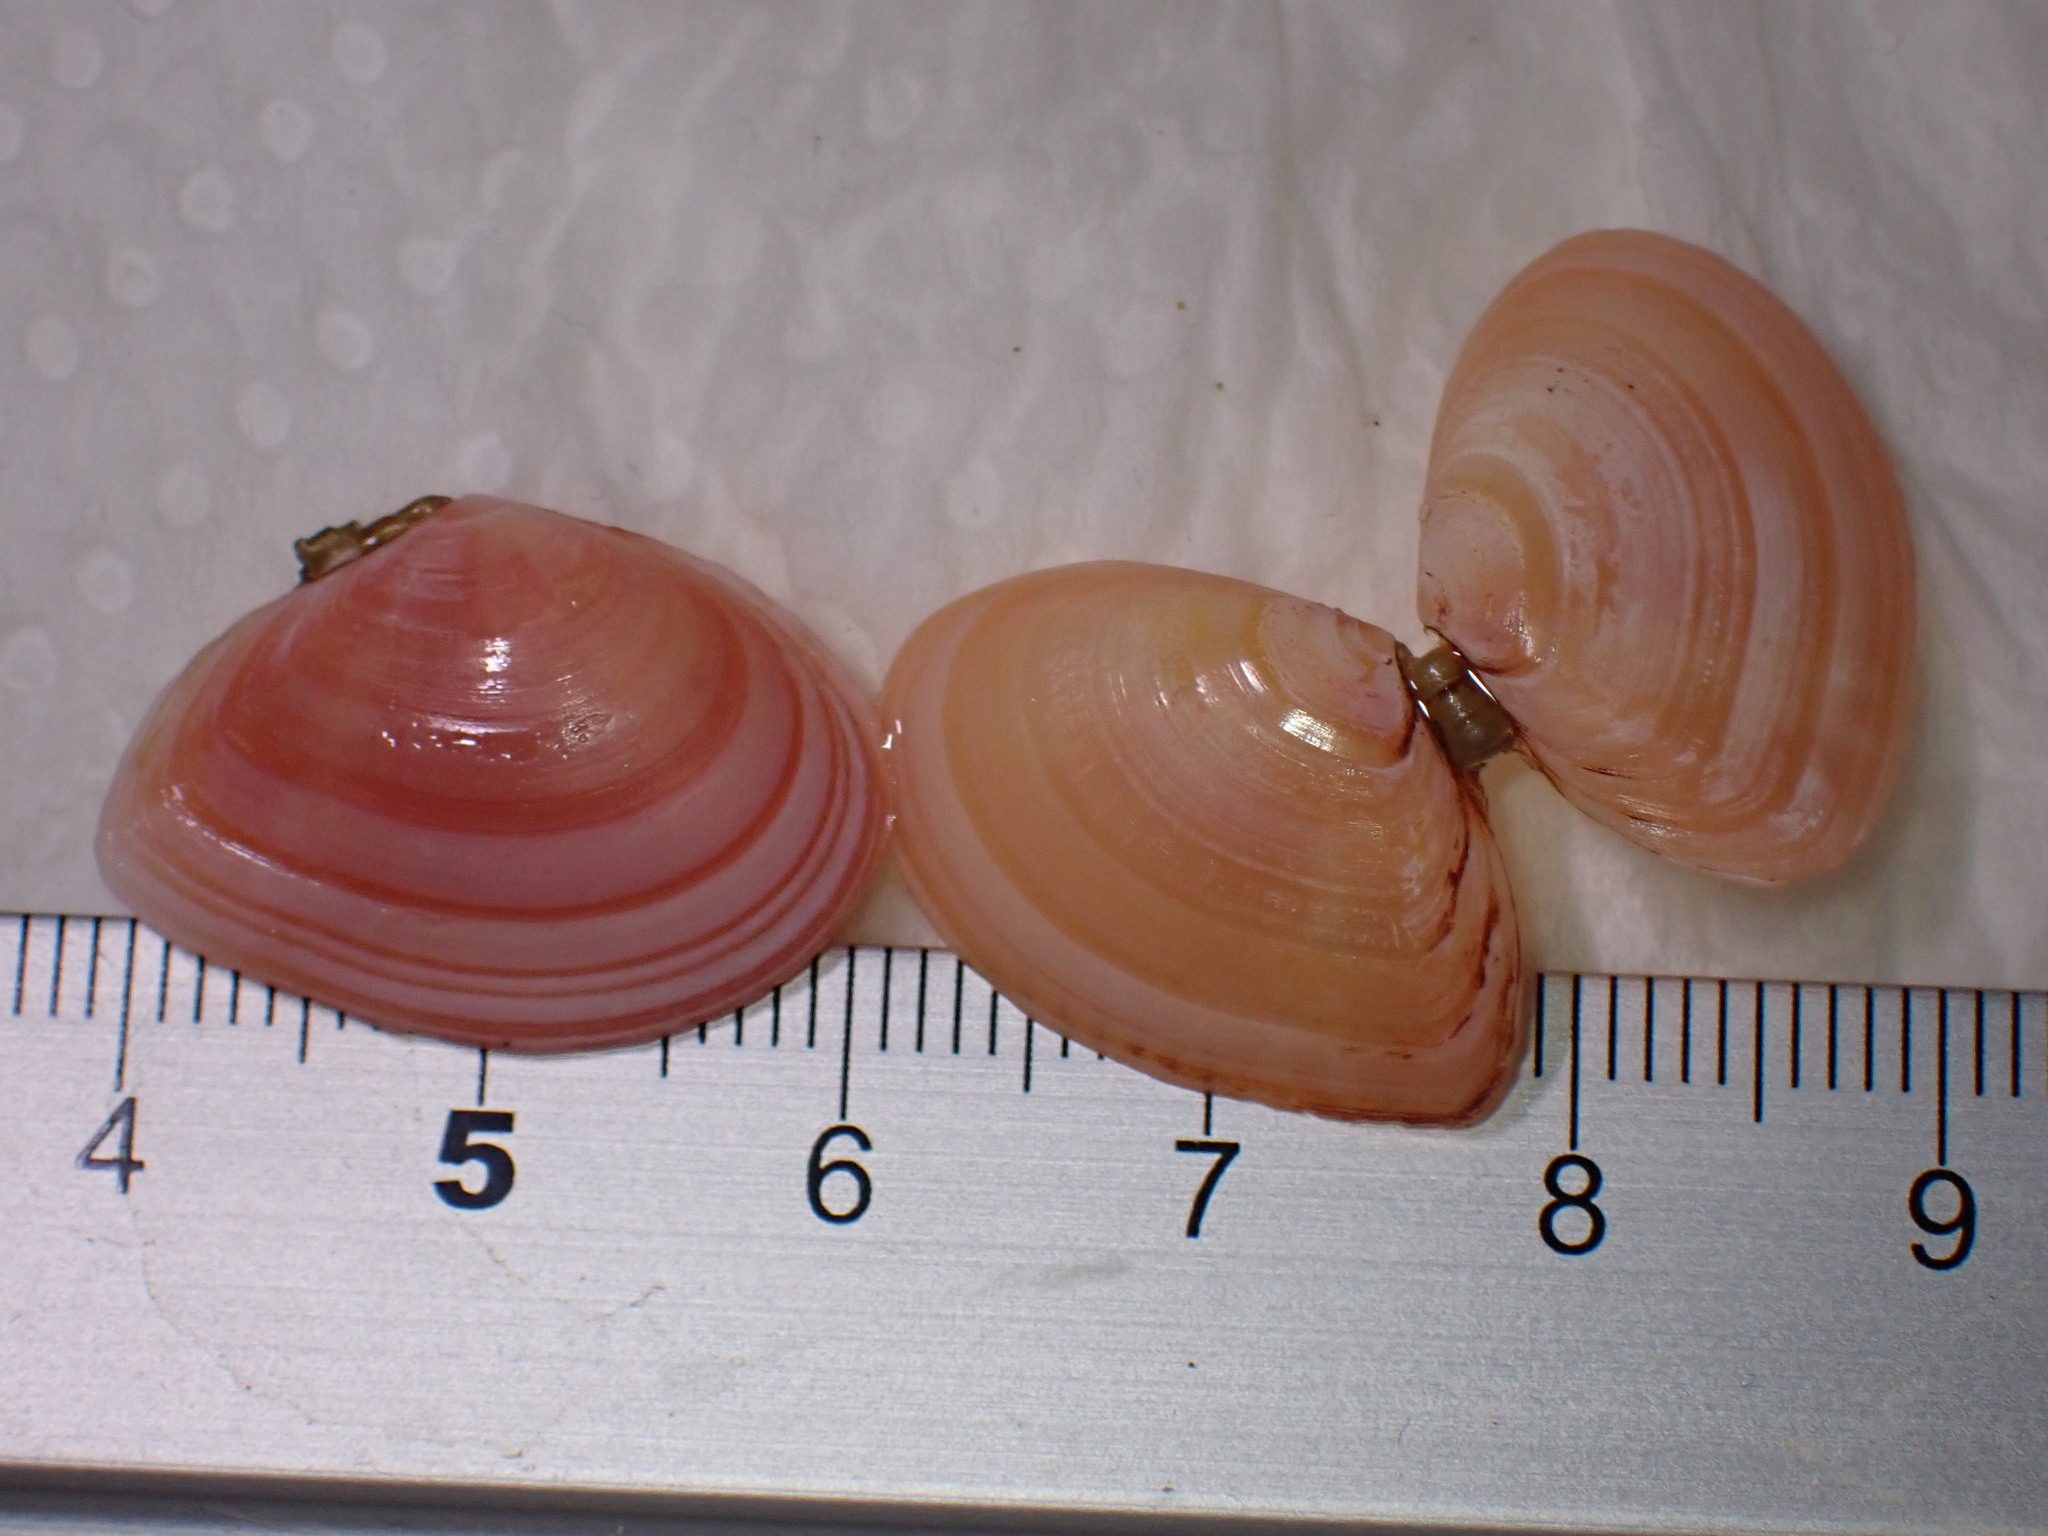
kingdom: Animalia
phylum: Mollusca
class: Bivalvia
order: Cardiida
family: Tellinidae
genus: Macomangulus
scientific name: Macomangulus tenuis
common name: Thin tellin
